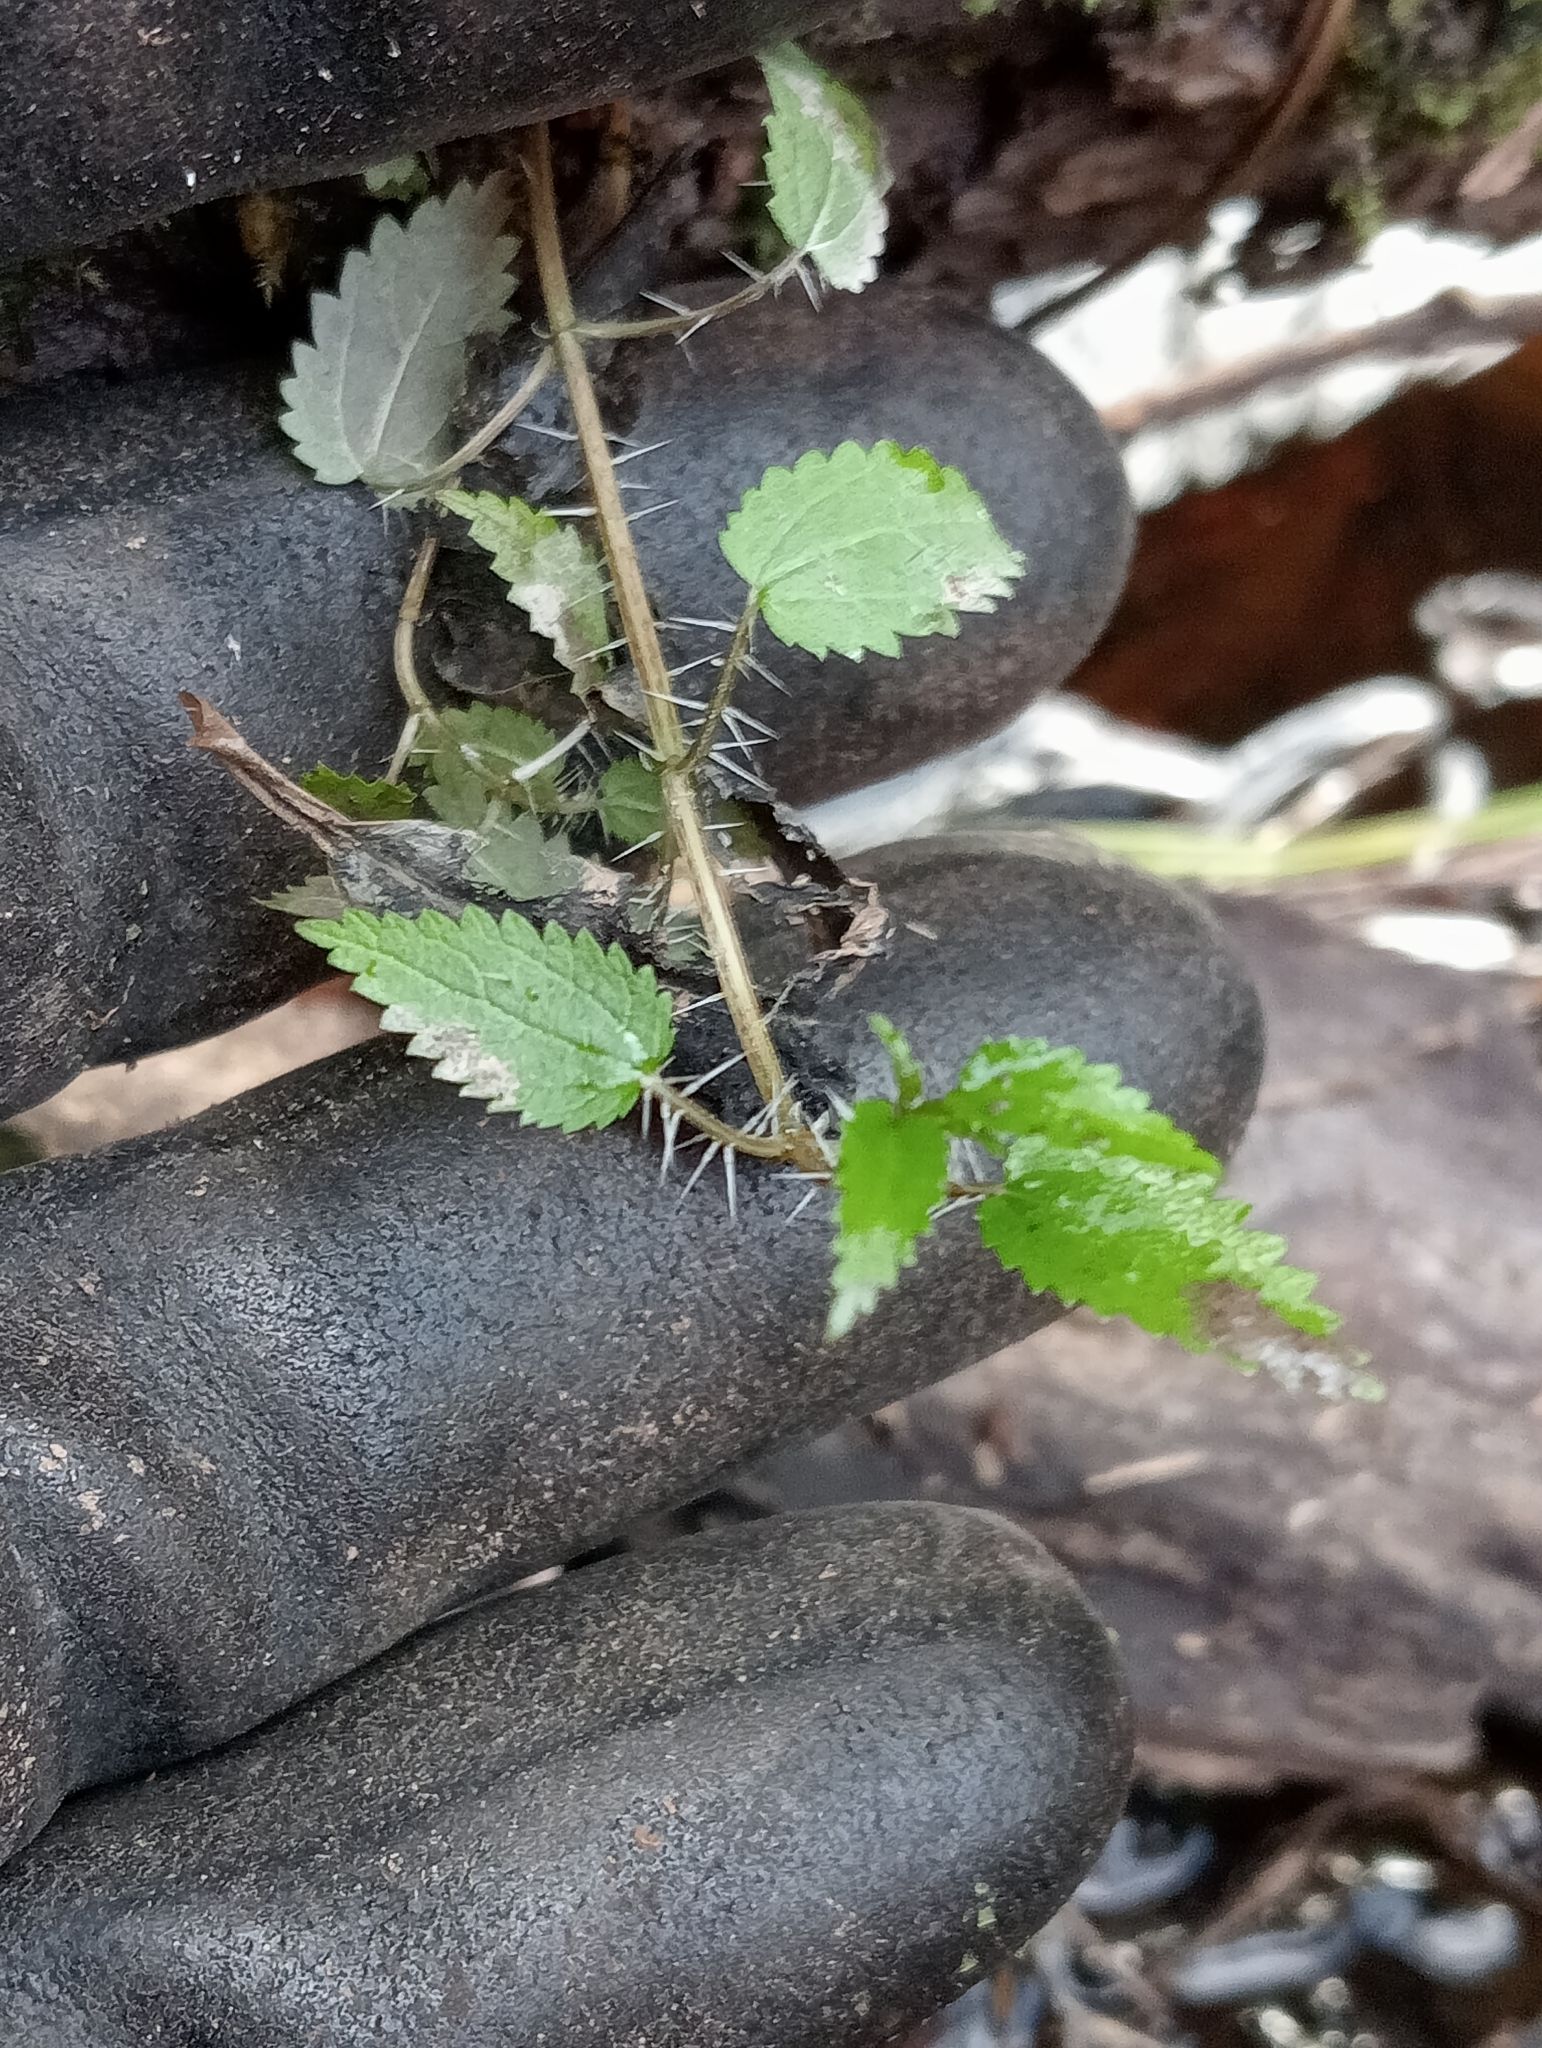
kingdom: Plantae
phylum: Tracheophyta
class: Magnoliopsida
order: Rosales
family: Urticaceae
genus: Urtica
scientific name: Urtica perconfusa
